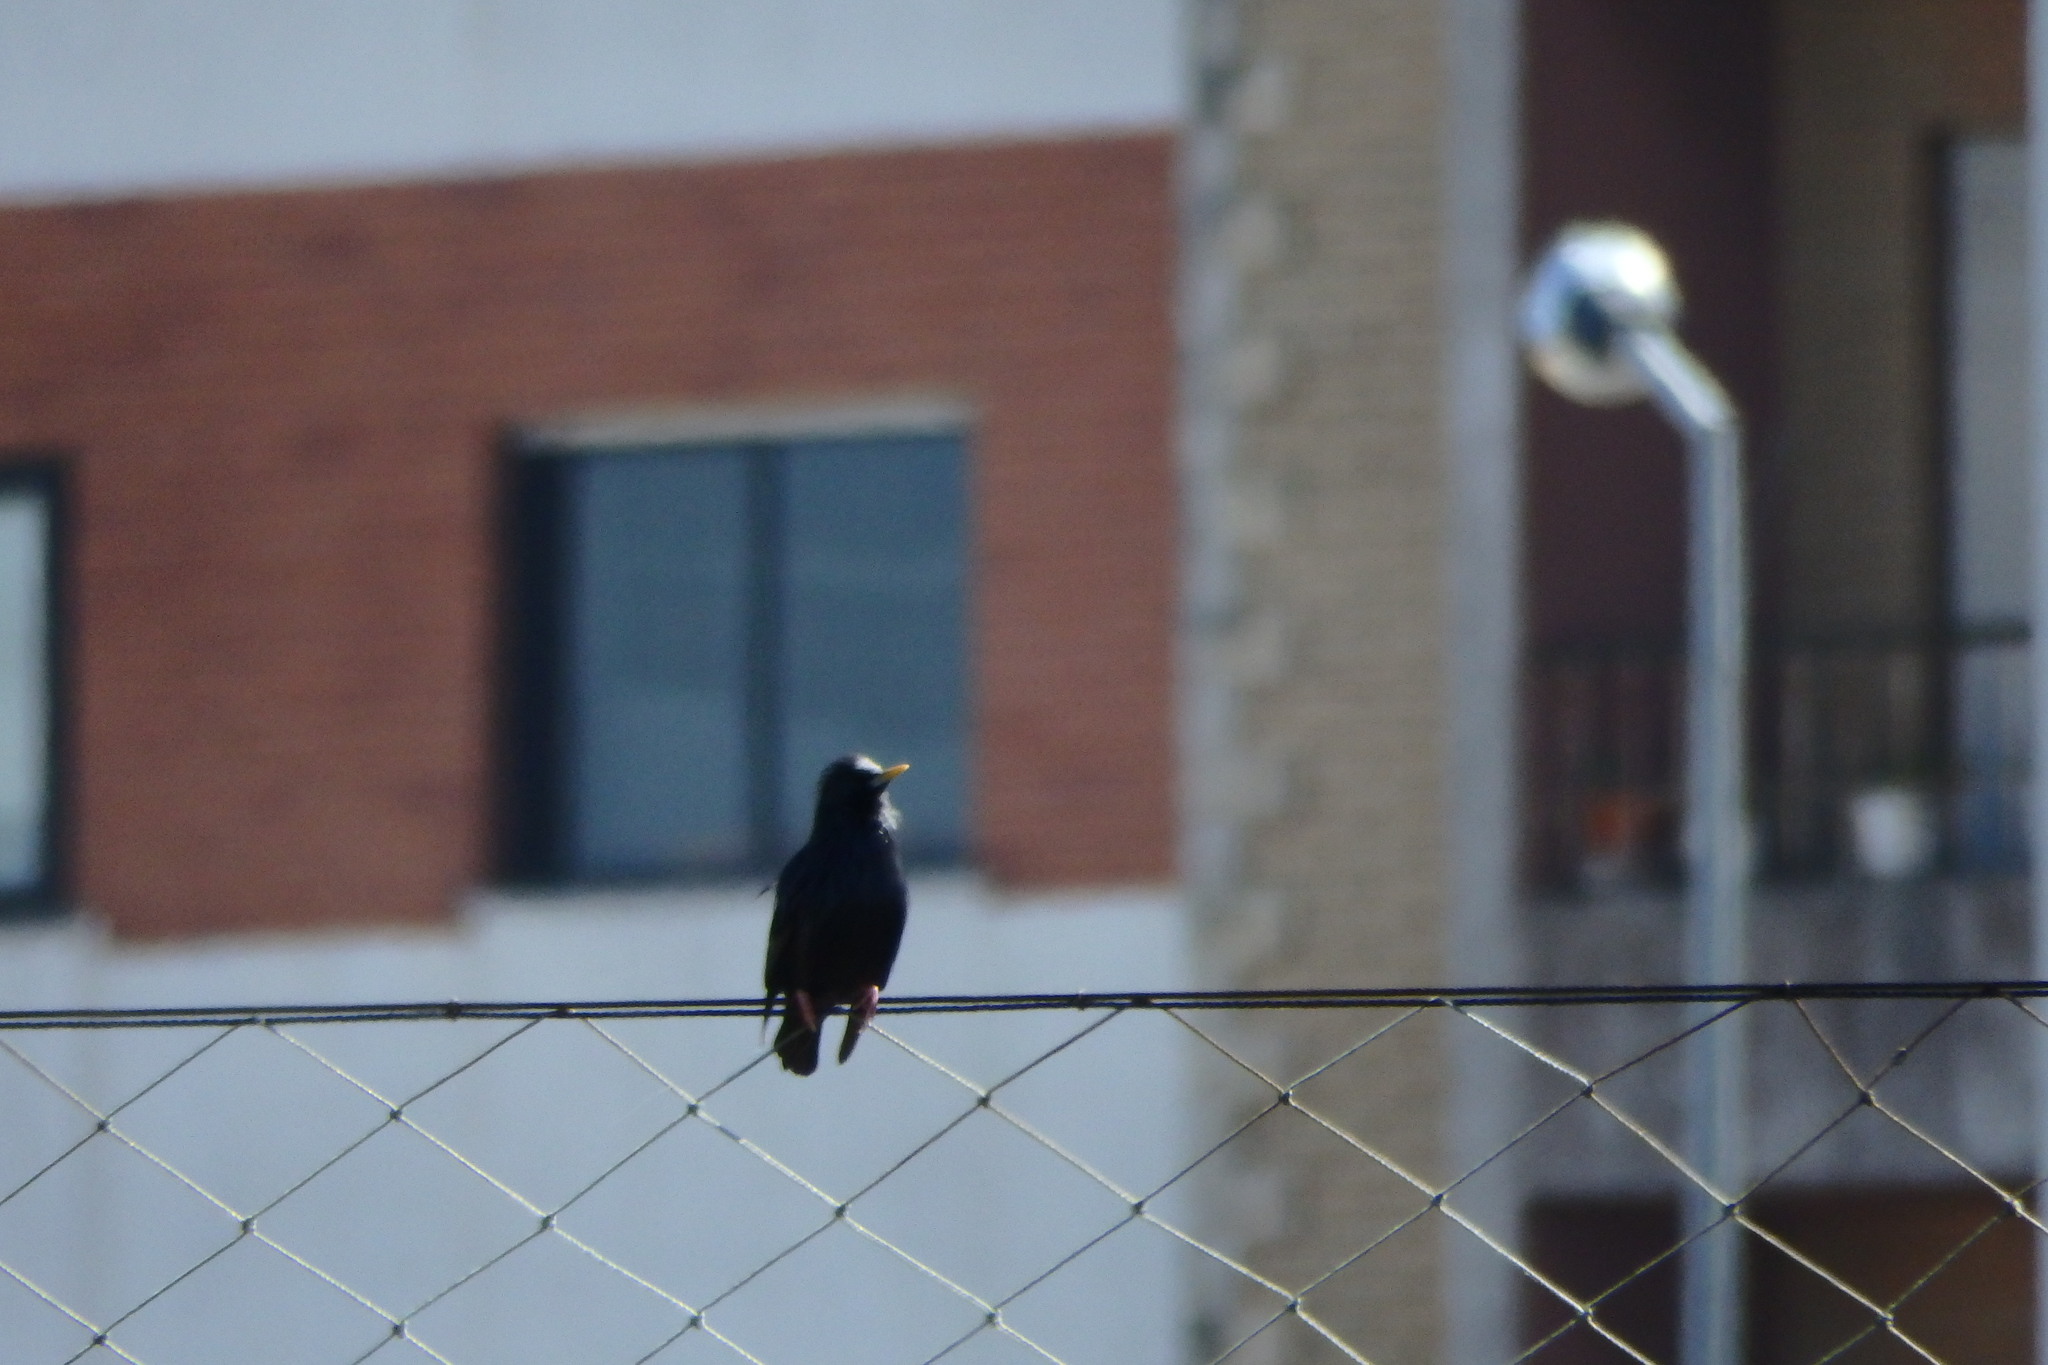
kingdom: Animalia
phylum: Chordata
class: Aves
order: Passeriformes
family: Sturnidae
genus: Sturnus
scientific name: Sturnus unicolor
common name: Spotless starling
